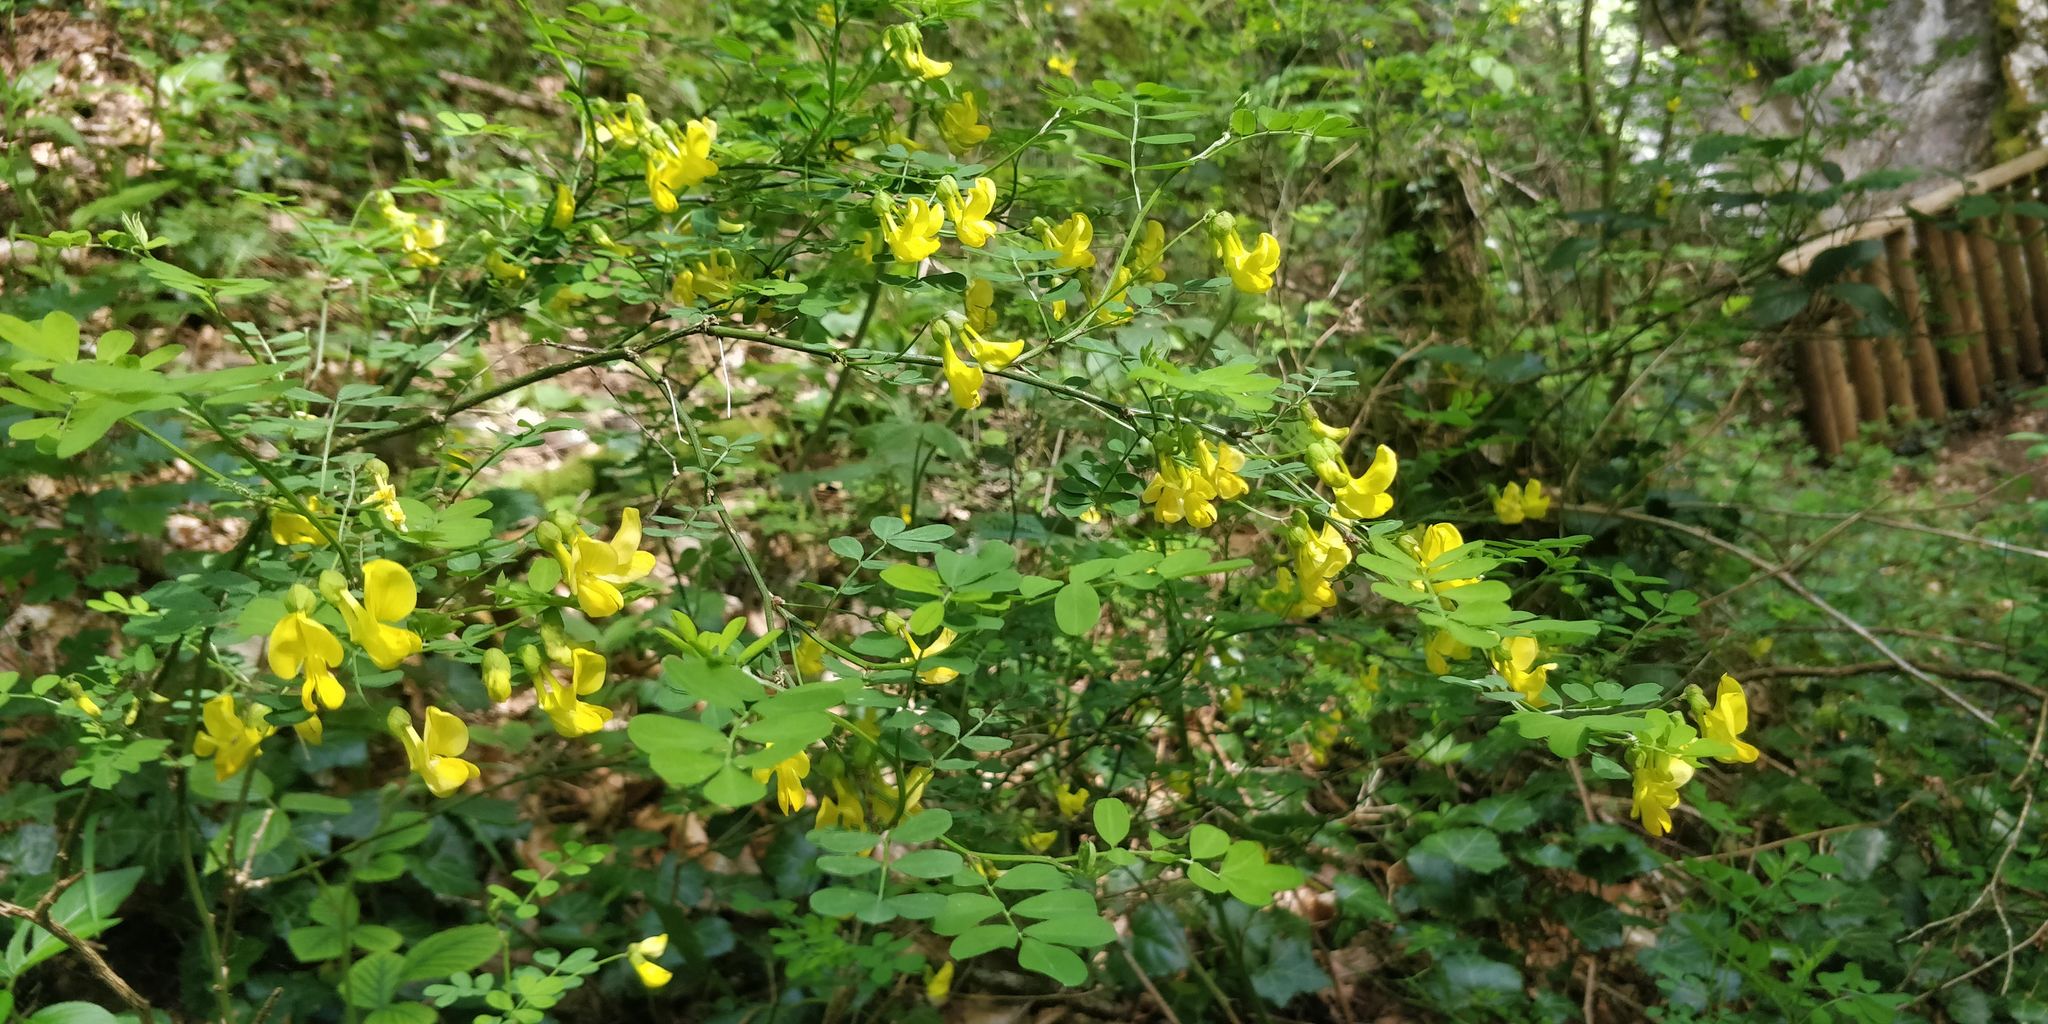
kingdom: Plantae
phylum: Tracheophyta
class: Magnoliopsida
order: Fabales
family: Fabaceae
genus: Hippocrepis
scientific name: Hippocrepis emerus
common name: Scorpion senna
